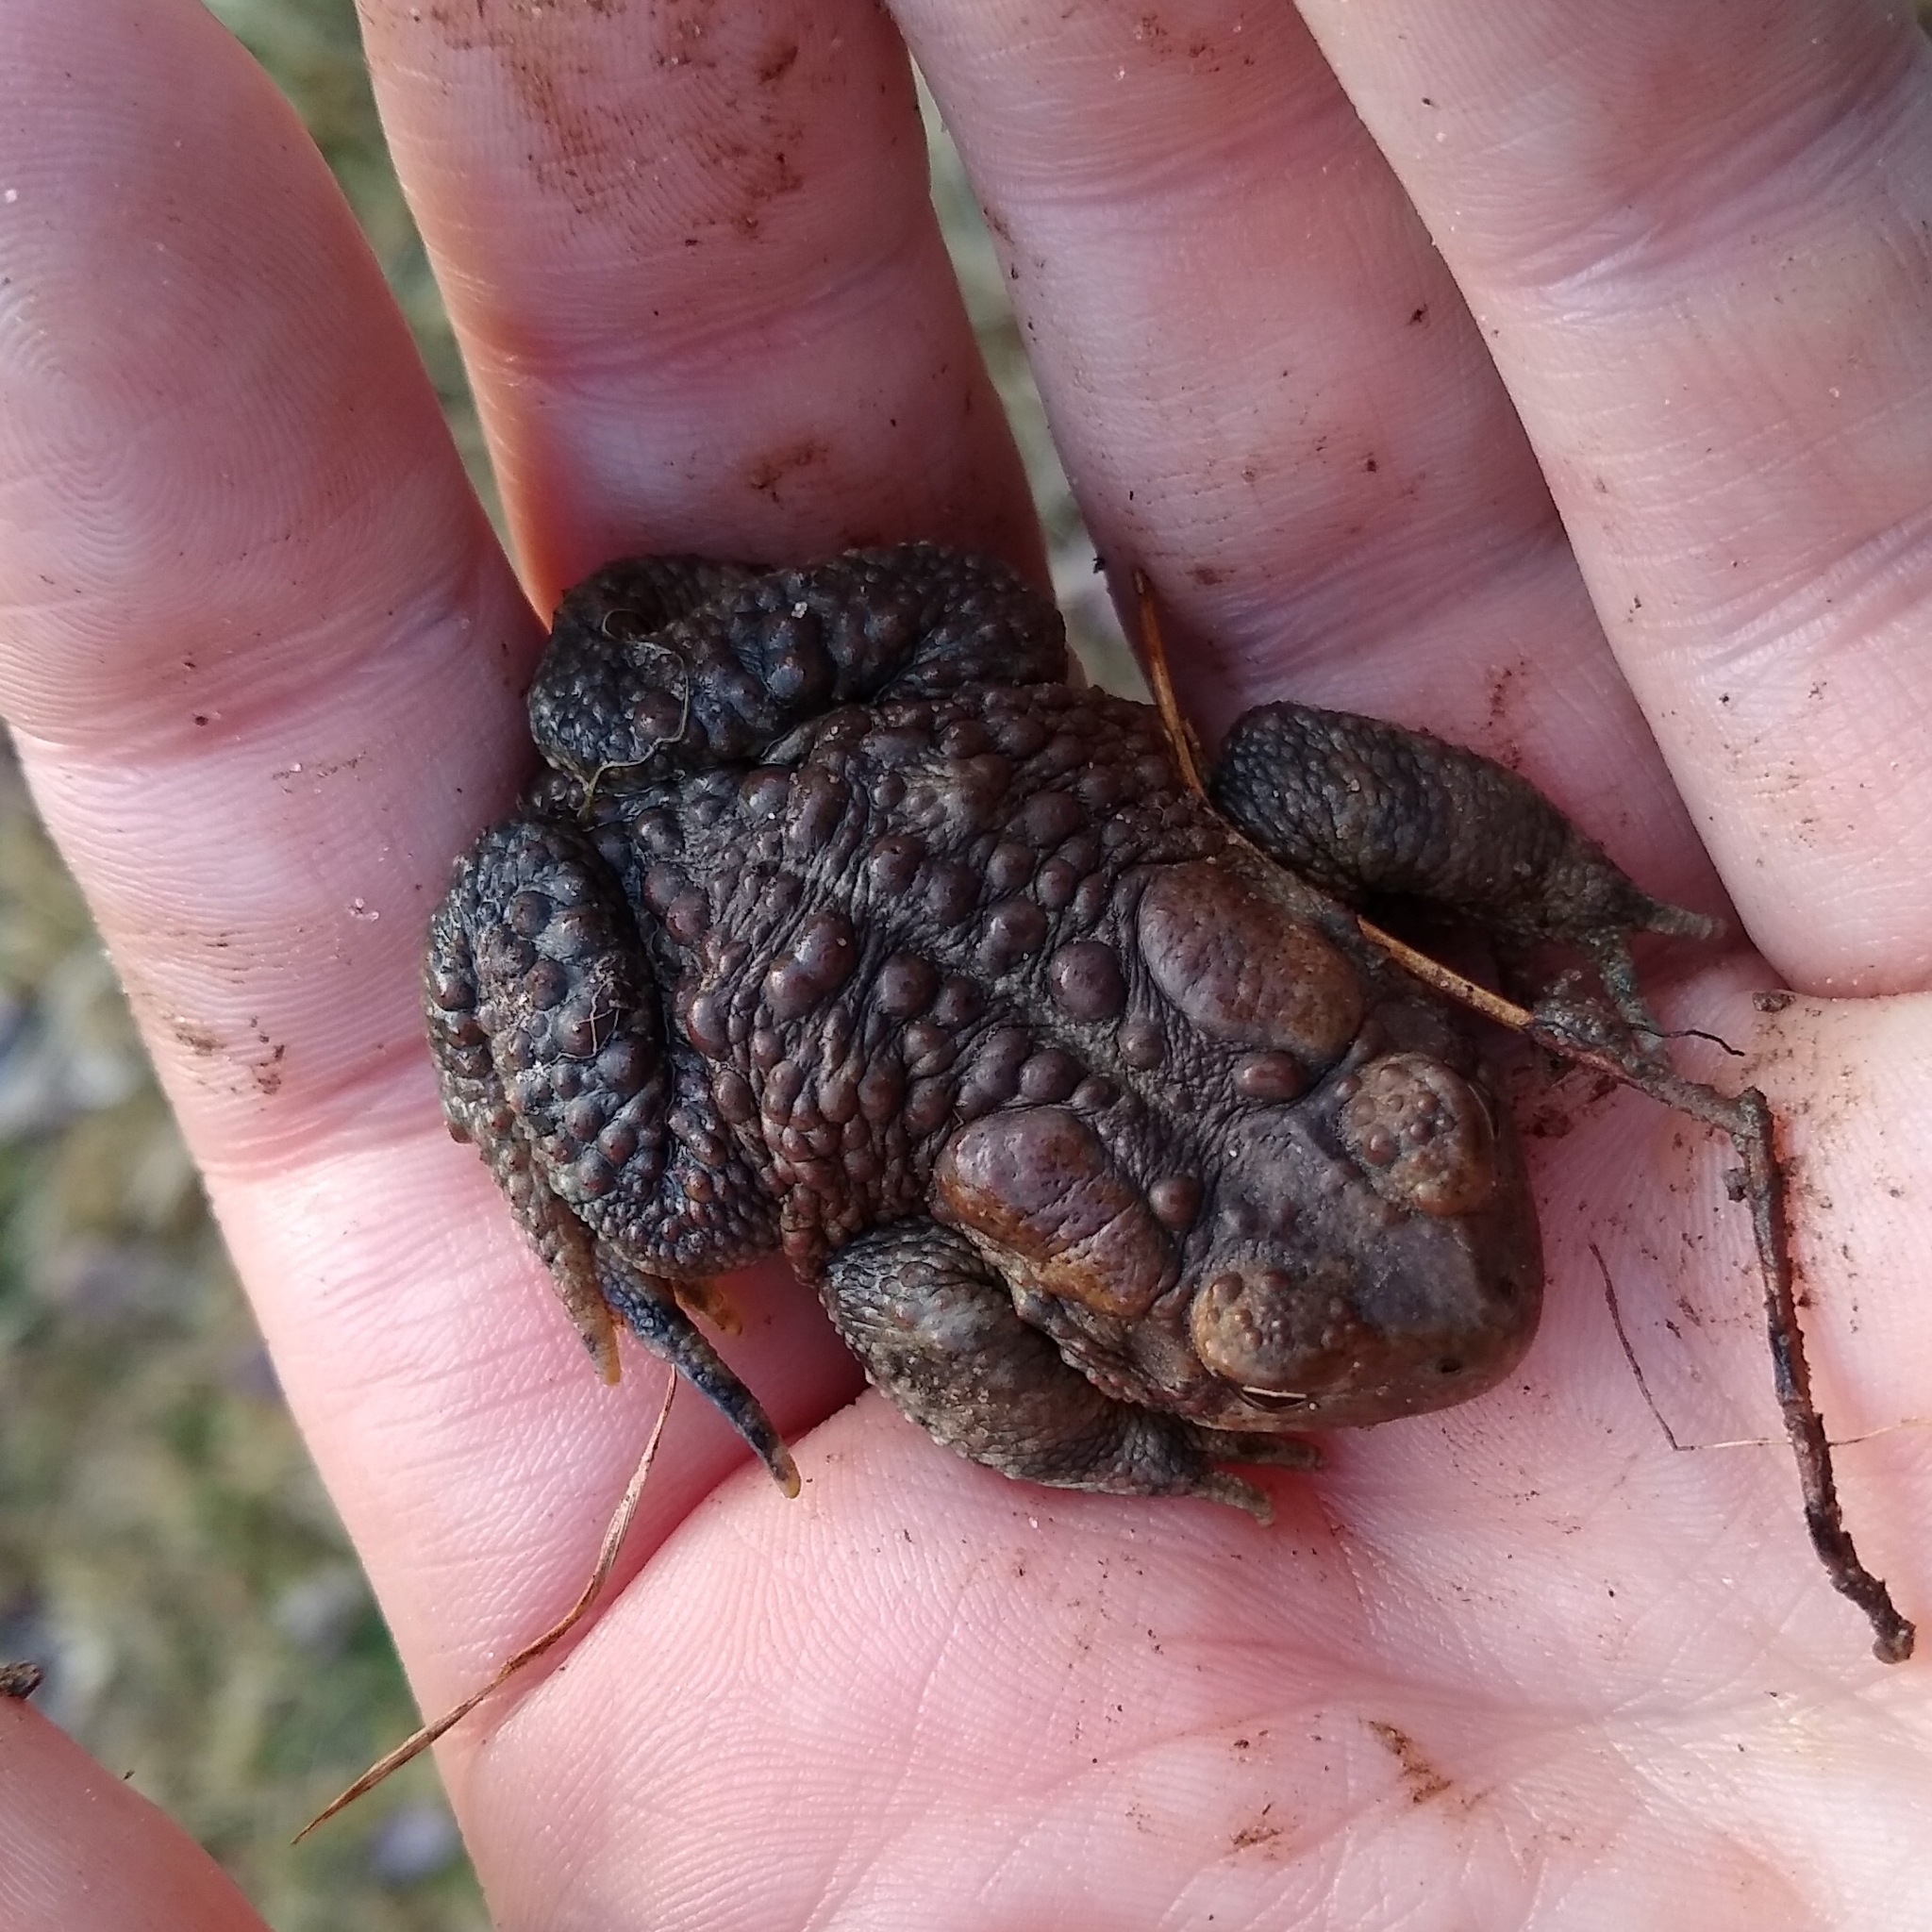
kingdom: Animalia
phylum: Chordata
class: Amphibia
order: Anura
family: Bufonidae
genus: Anaxyrus
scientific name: Anaxyrus americanus
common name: American toad
